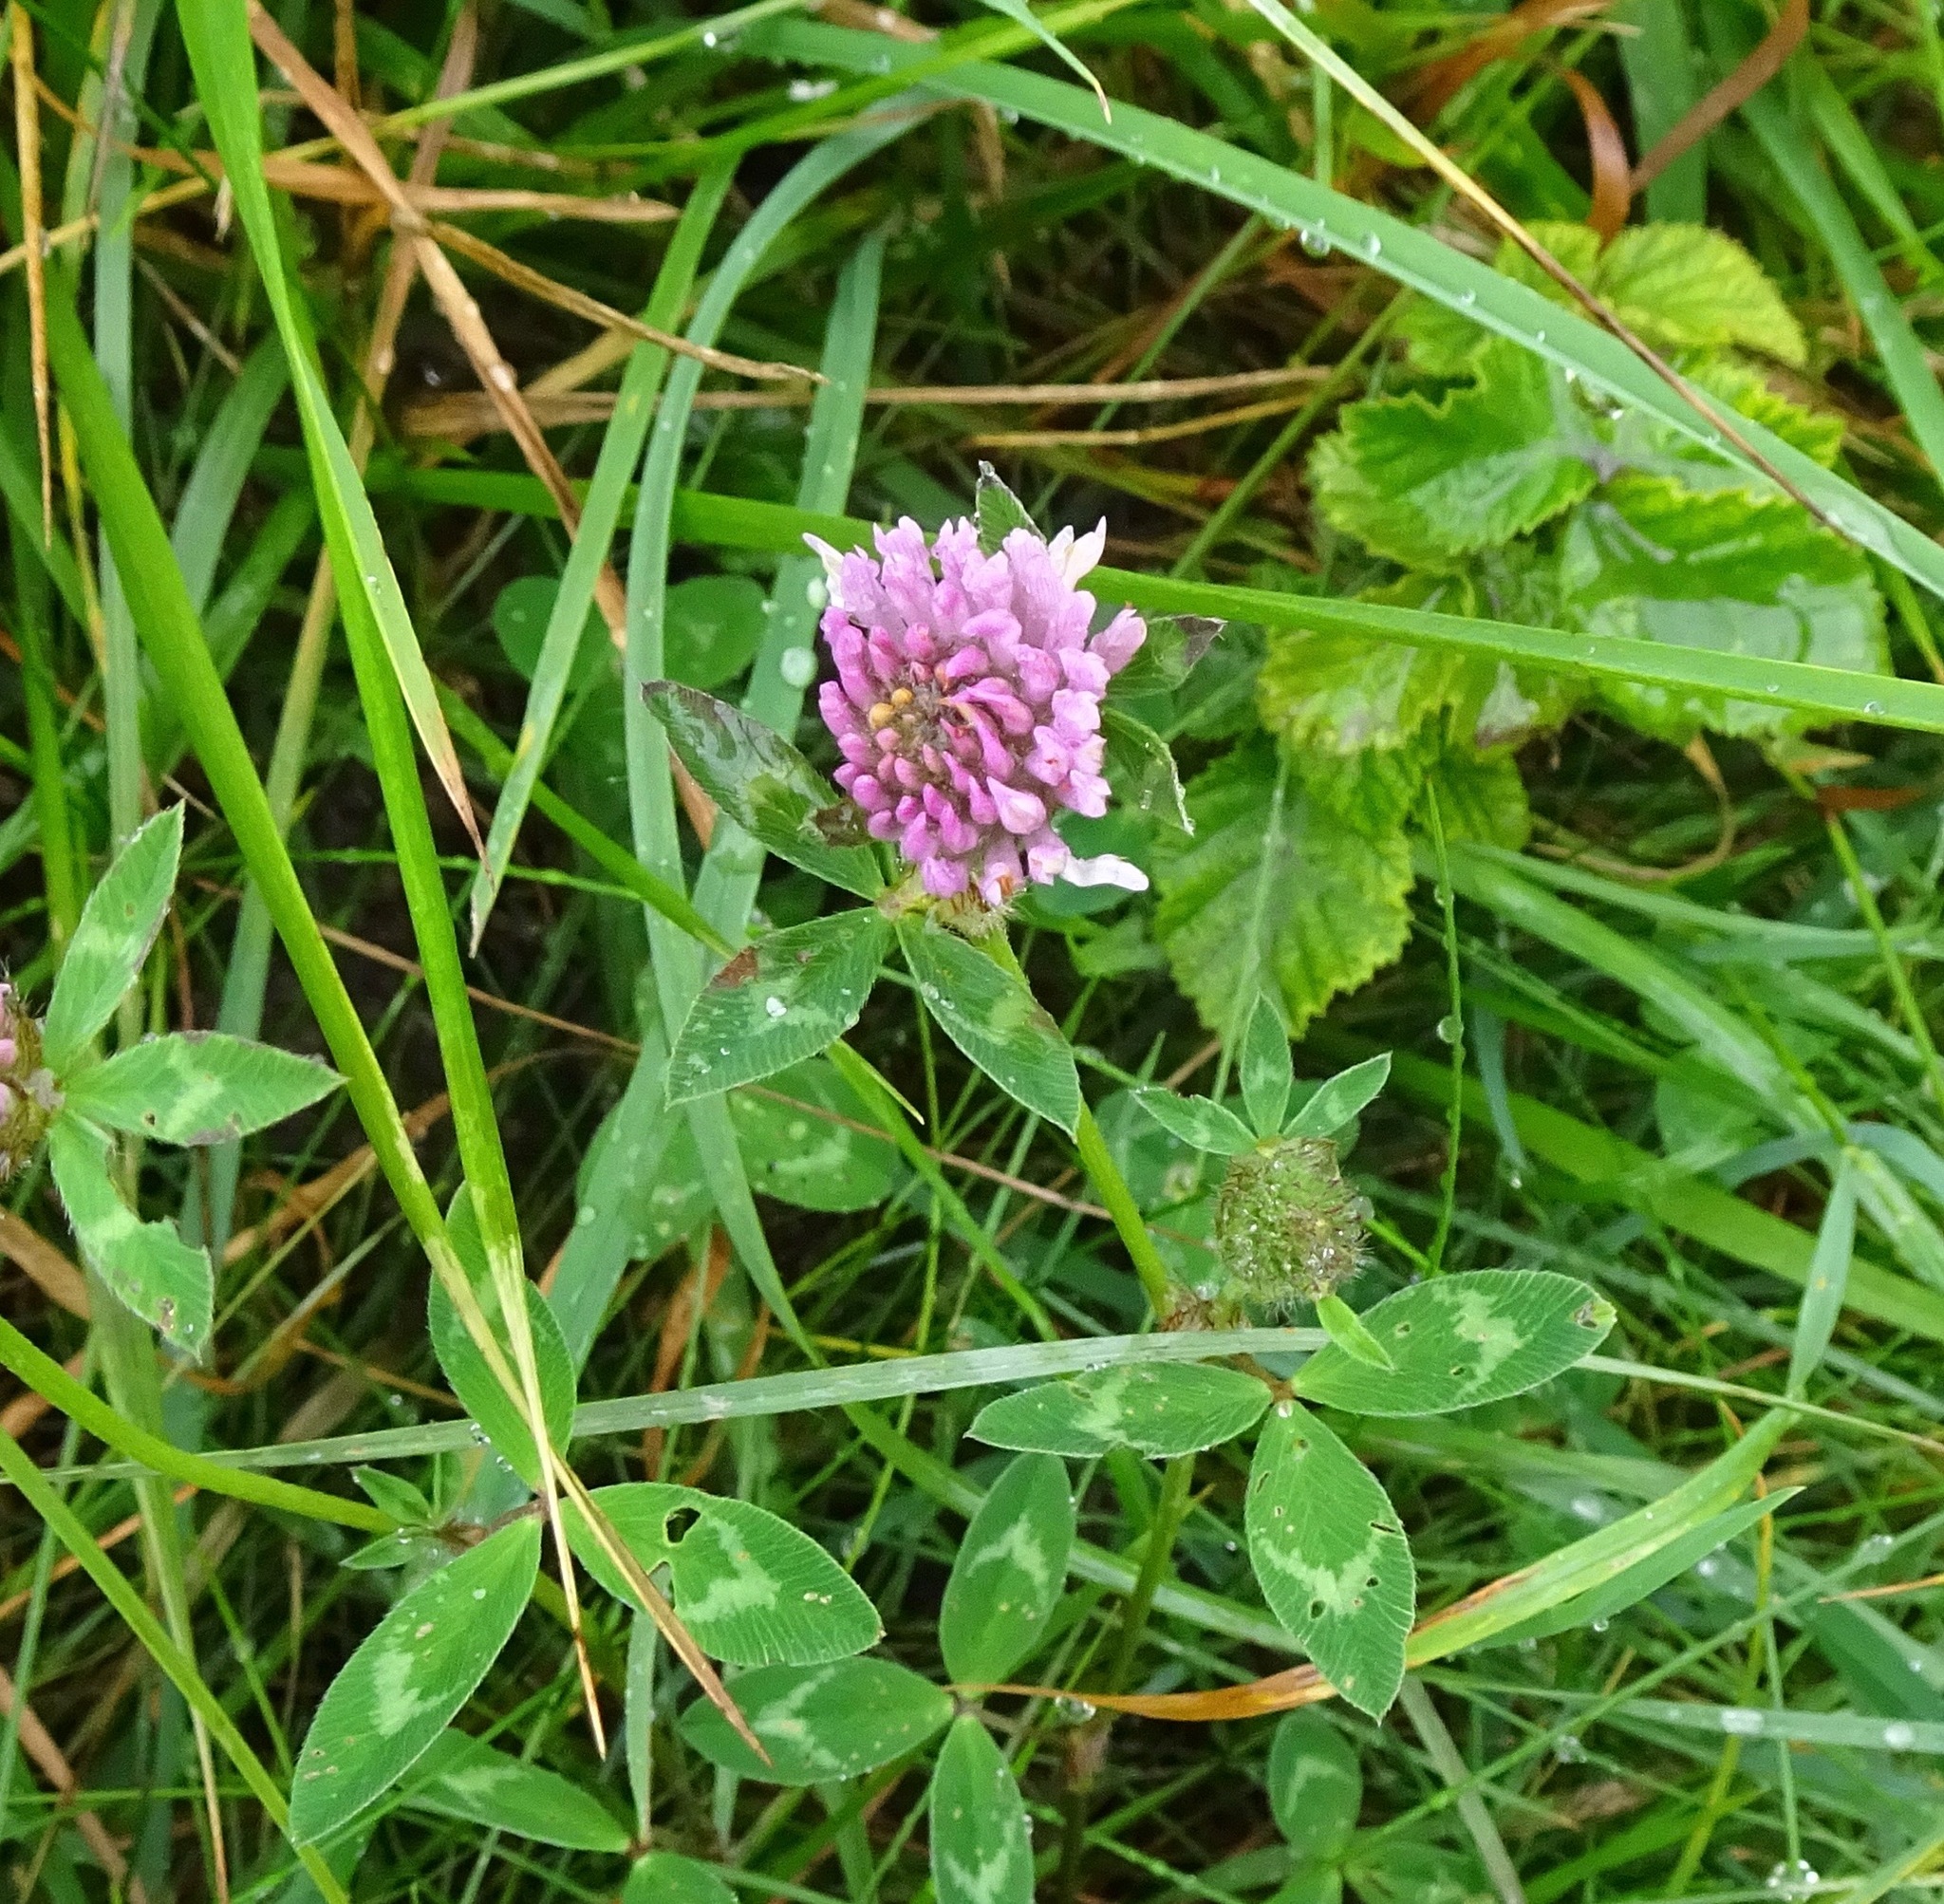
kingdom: Plantae
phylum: Tracheophyta
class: Magnoliopsida
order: Fabales
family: Fabaceae
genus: Trifolium
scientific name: Trifolium pratense
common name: Red clover
